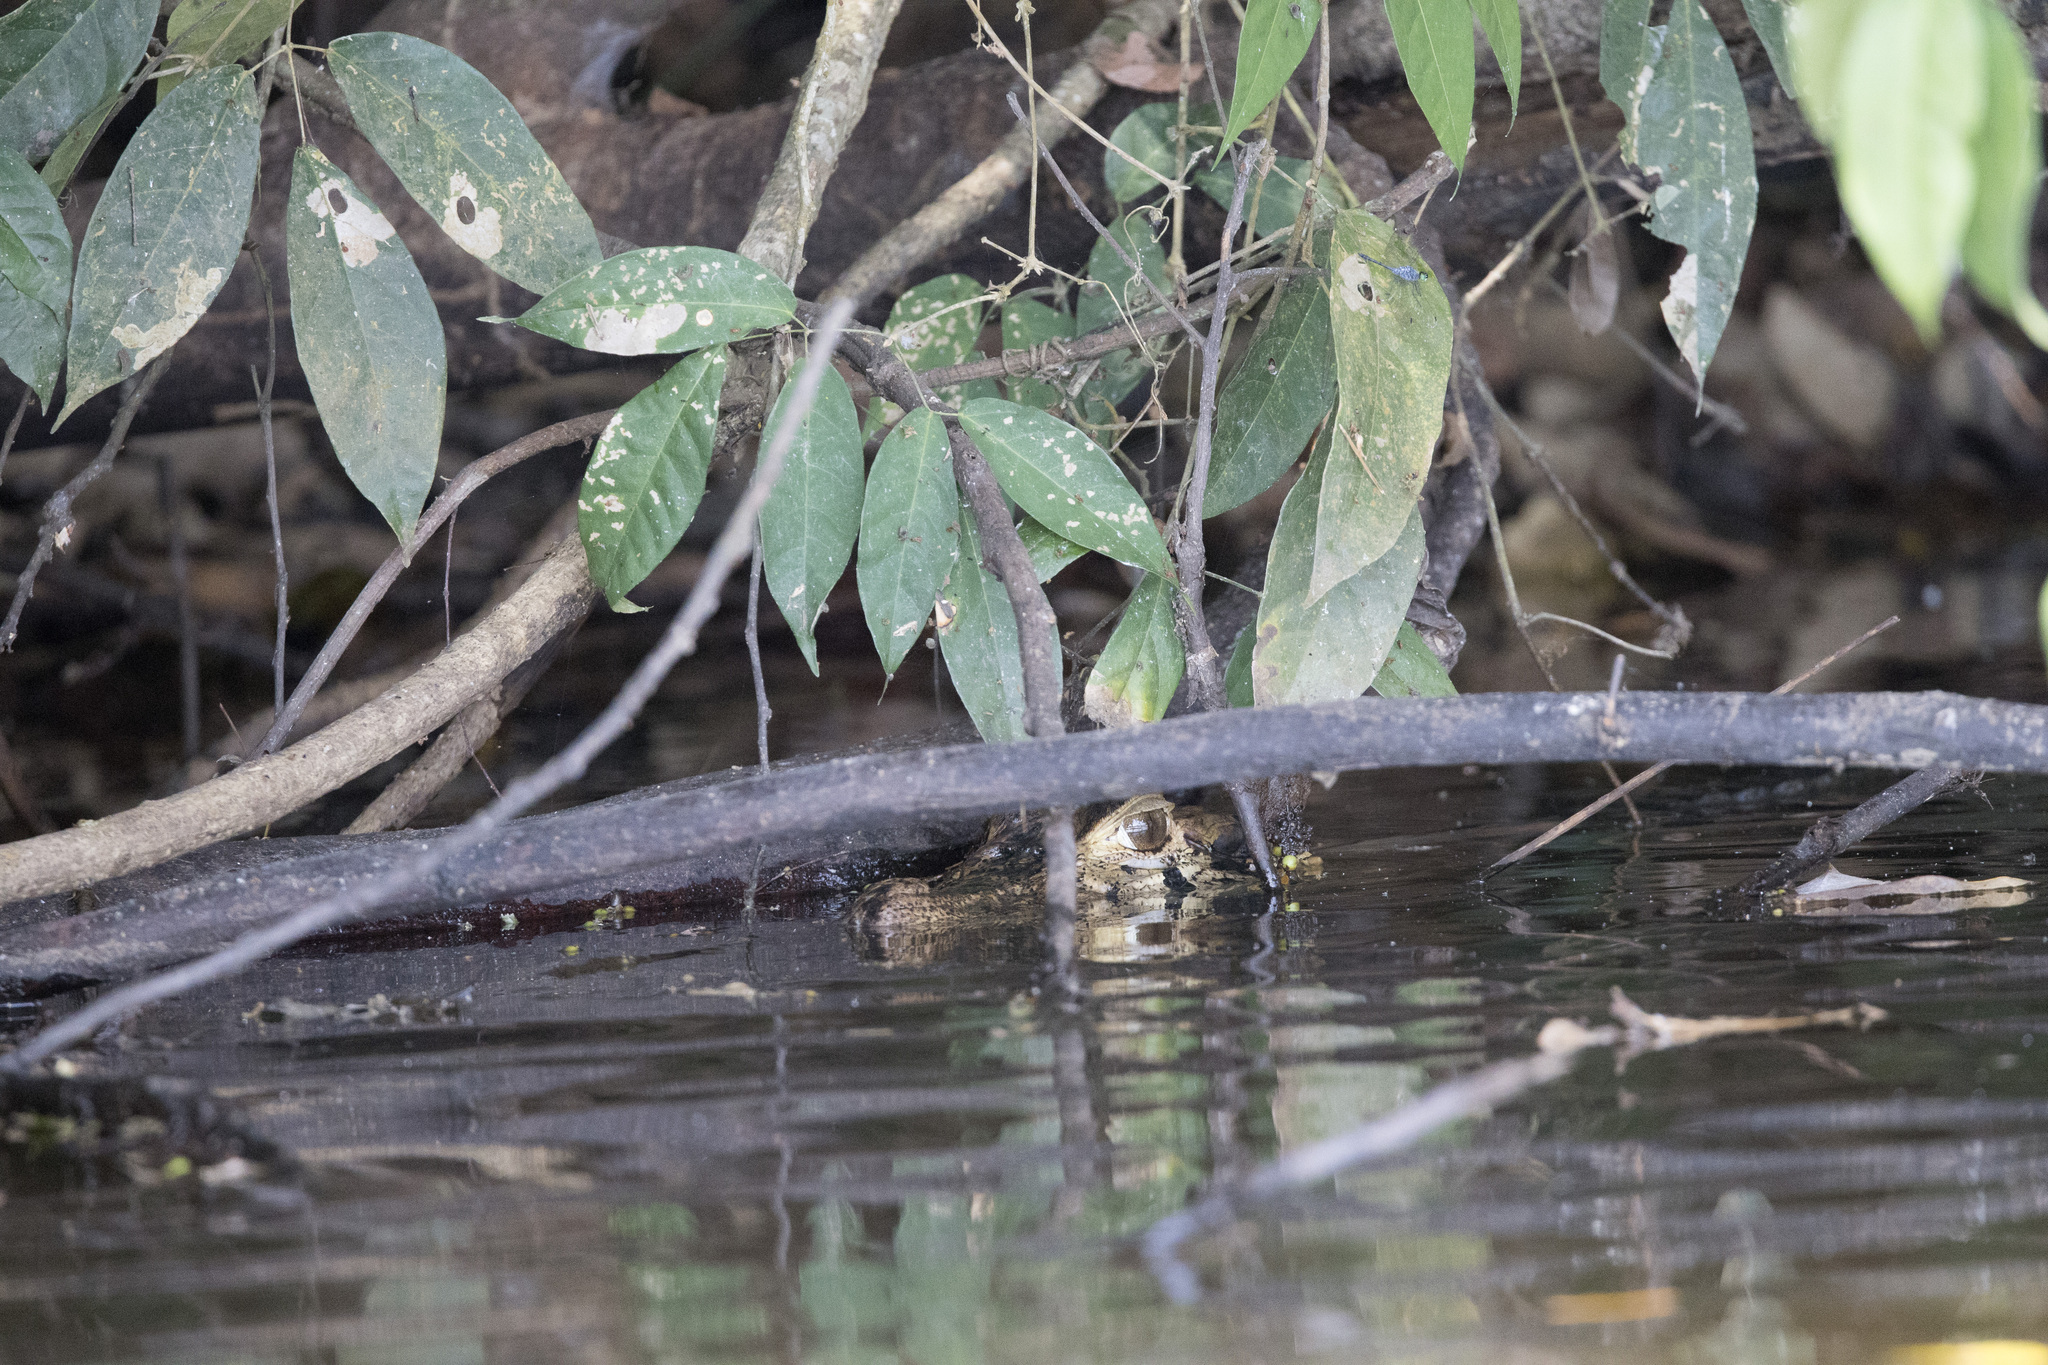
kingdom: Animalia
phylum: Chordata
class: Crocodylia
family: Alligatoridae
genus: Melanosuchus
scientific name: Melanosuchus niger
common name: Black caiman
